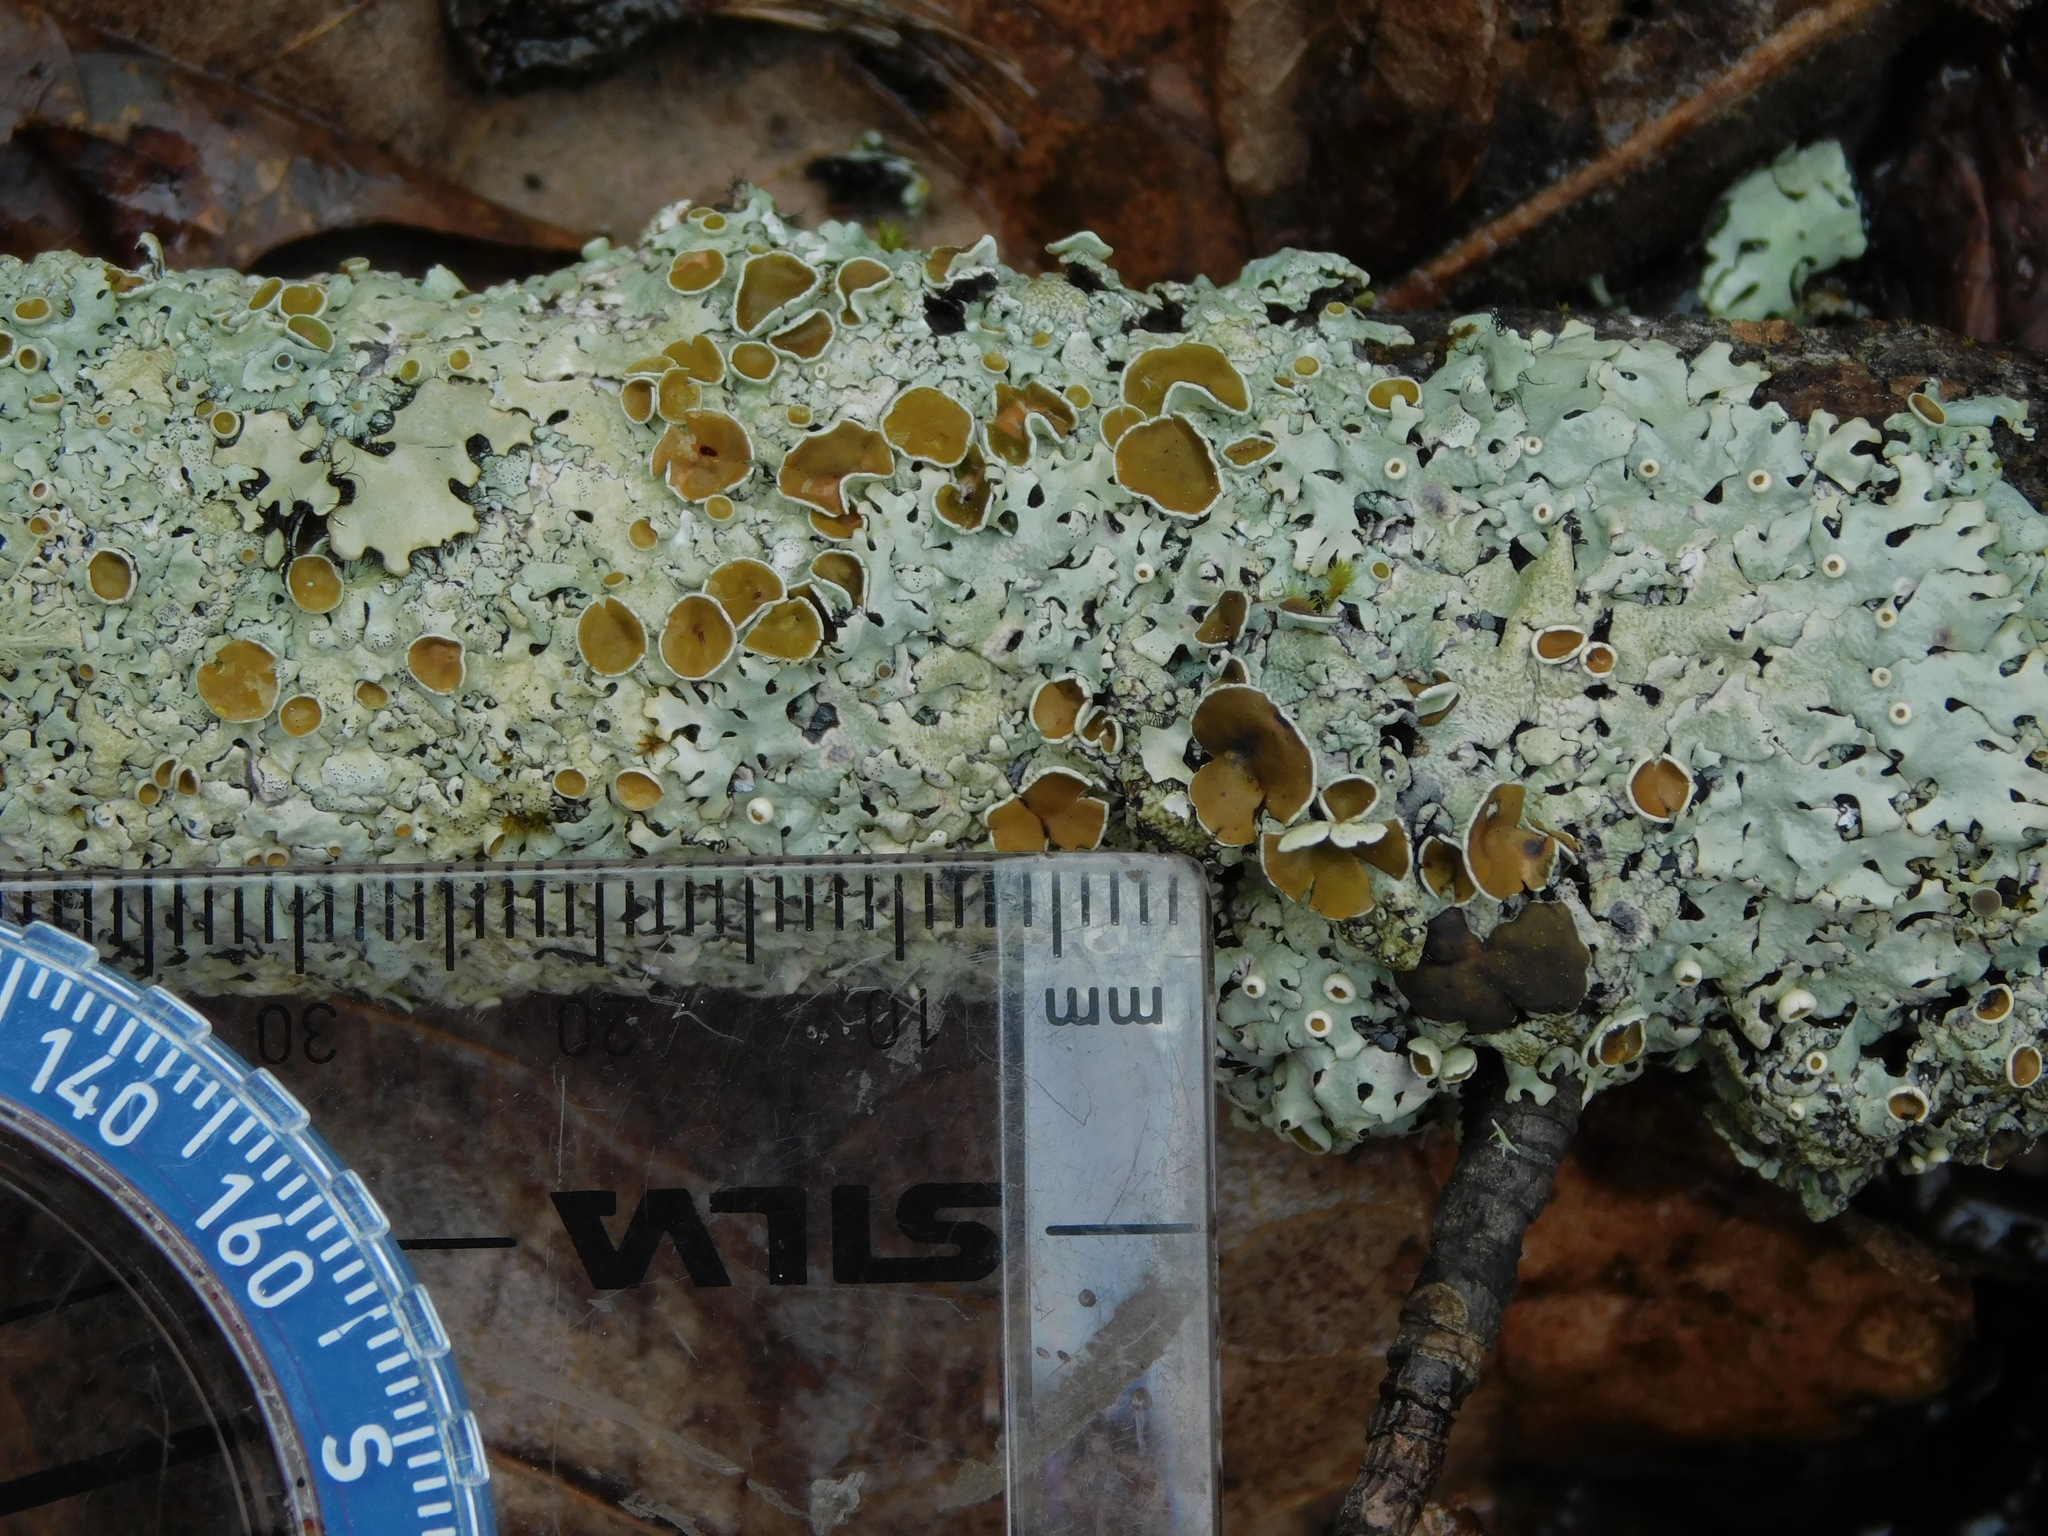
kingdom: Fungi
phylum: Ascomycota
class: Lecanoromycetes
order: Lecanorales
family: Parmeliaceae
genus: Myelochroa
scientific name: Myelochroa galbina
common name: Smooth axil-bristle lichen
